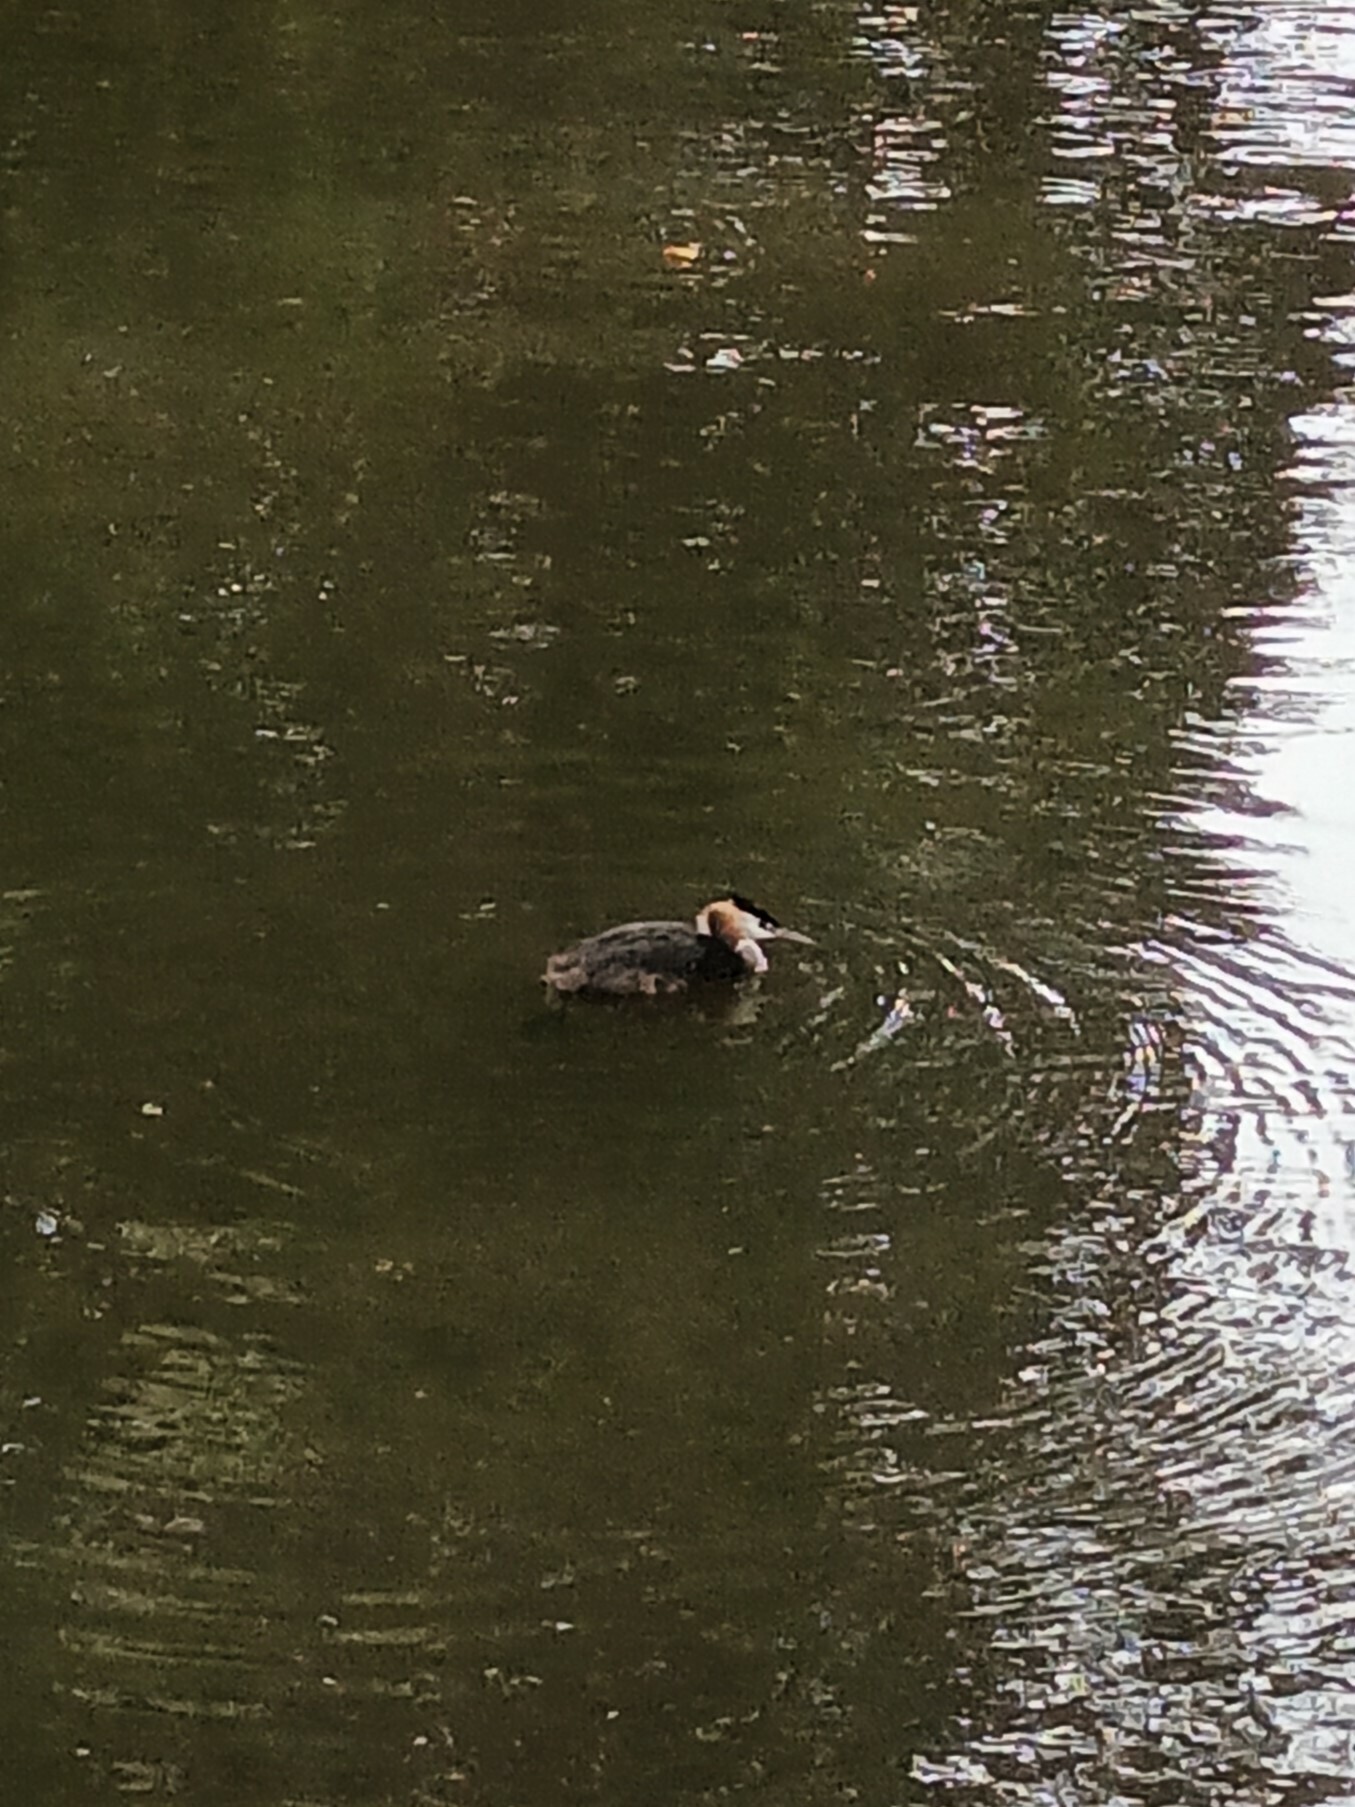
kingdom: Animalia
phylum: Chordata
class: Aves
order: Podicipediformes
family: Podicipedidae
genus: Podiceps
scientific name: Podiceps cristatus
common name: Great crested grebe
